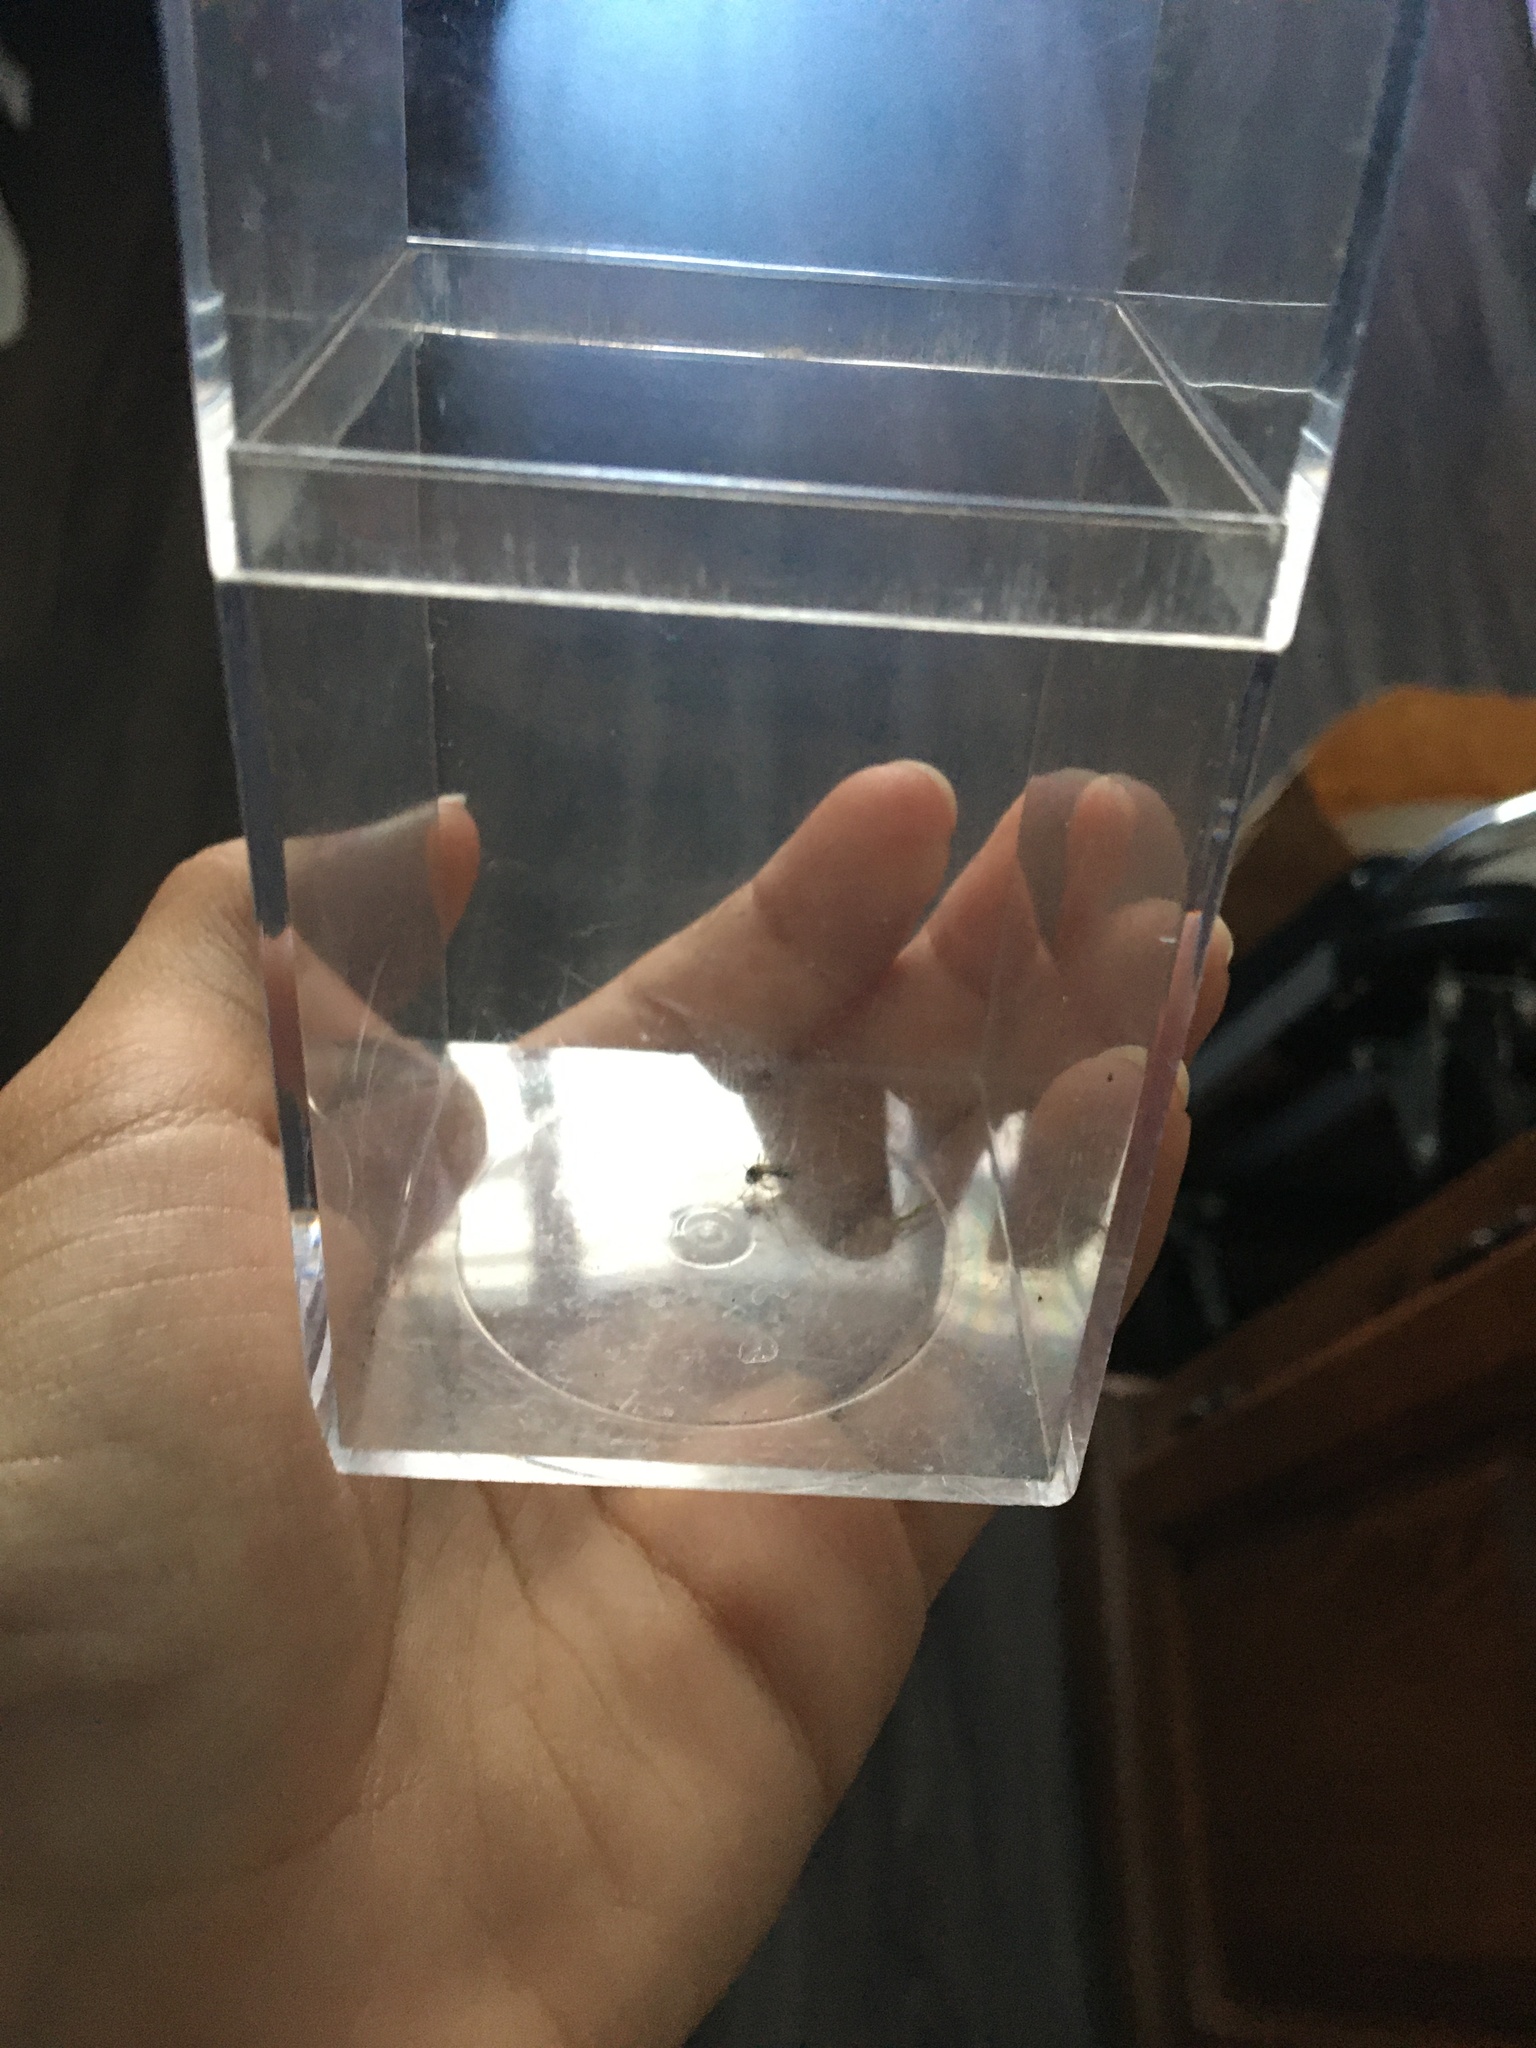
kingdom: Animalia
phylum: Arthropoda
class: Insecta
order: Diptera
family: Culicidae
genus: Aedes
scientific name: Aedes vexans
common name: Inland floodwater mosquito
